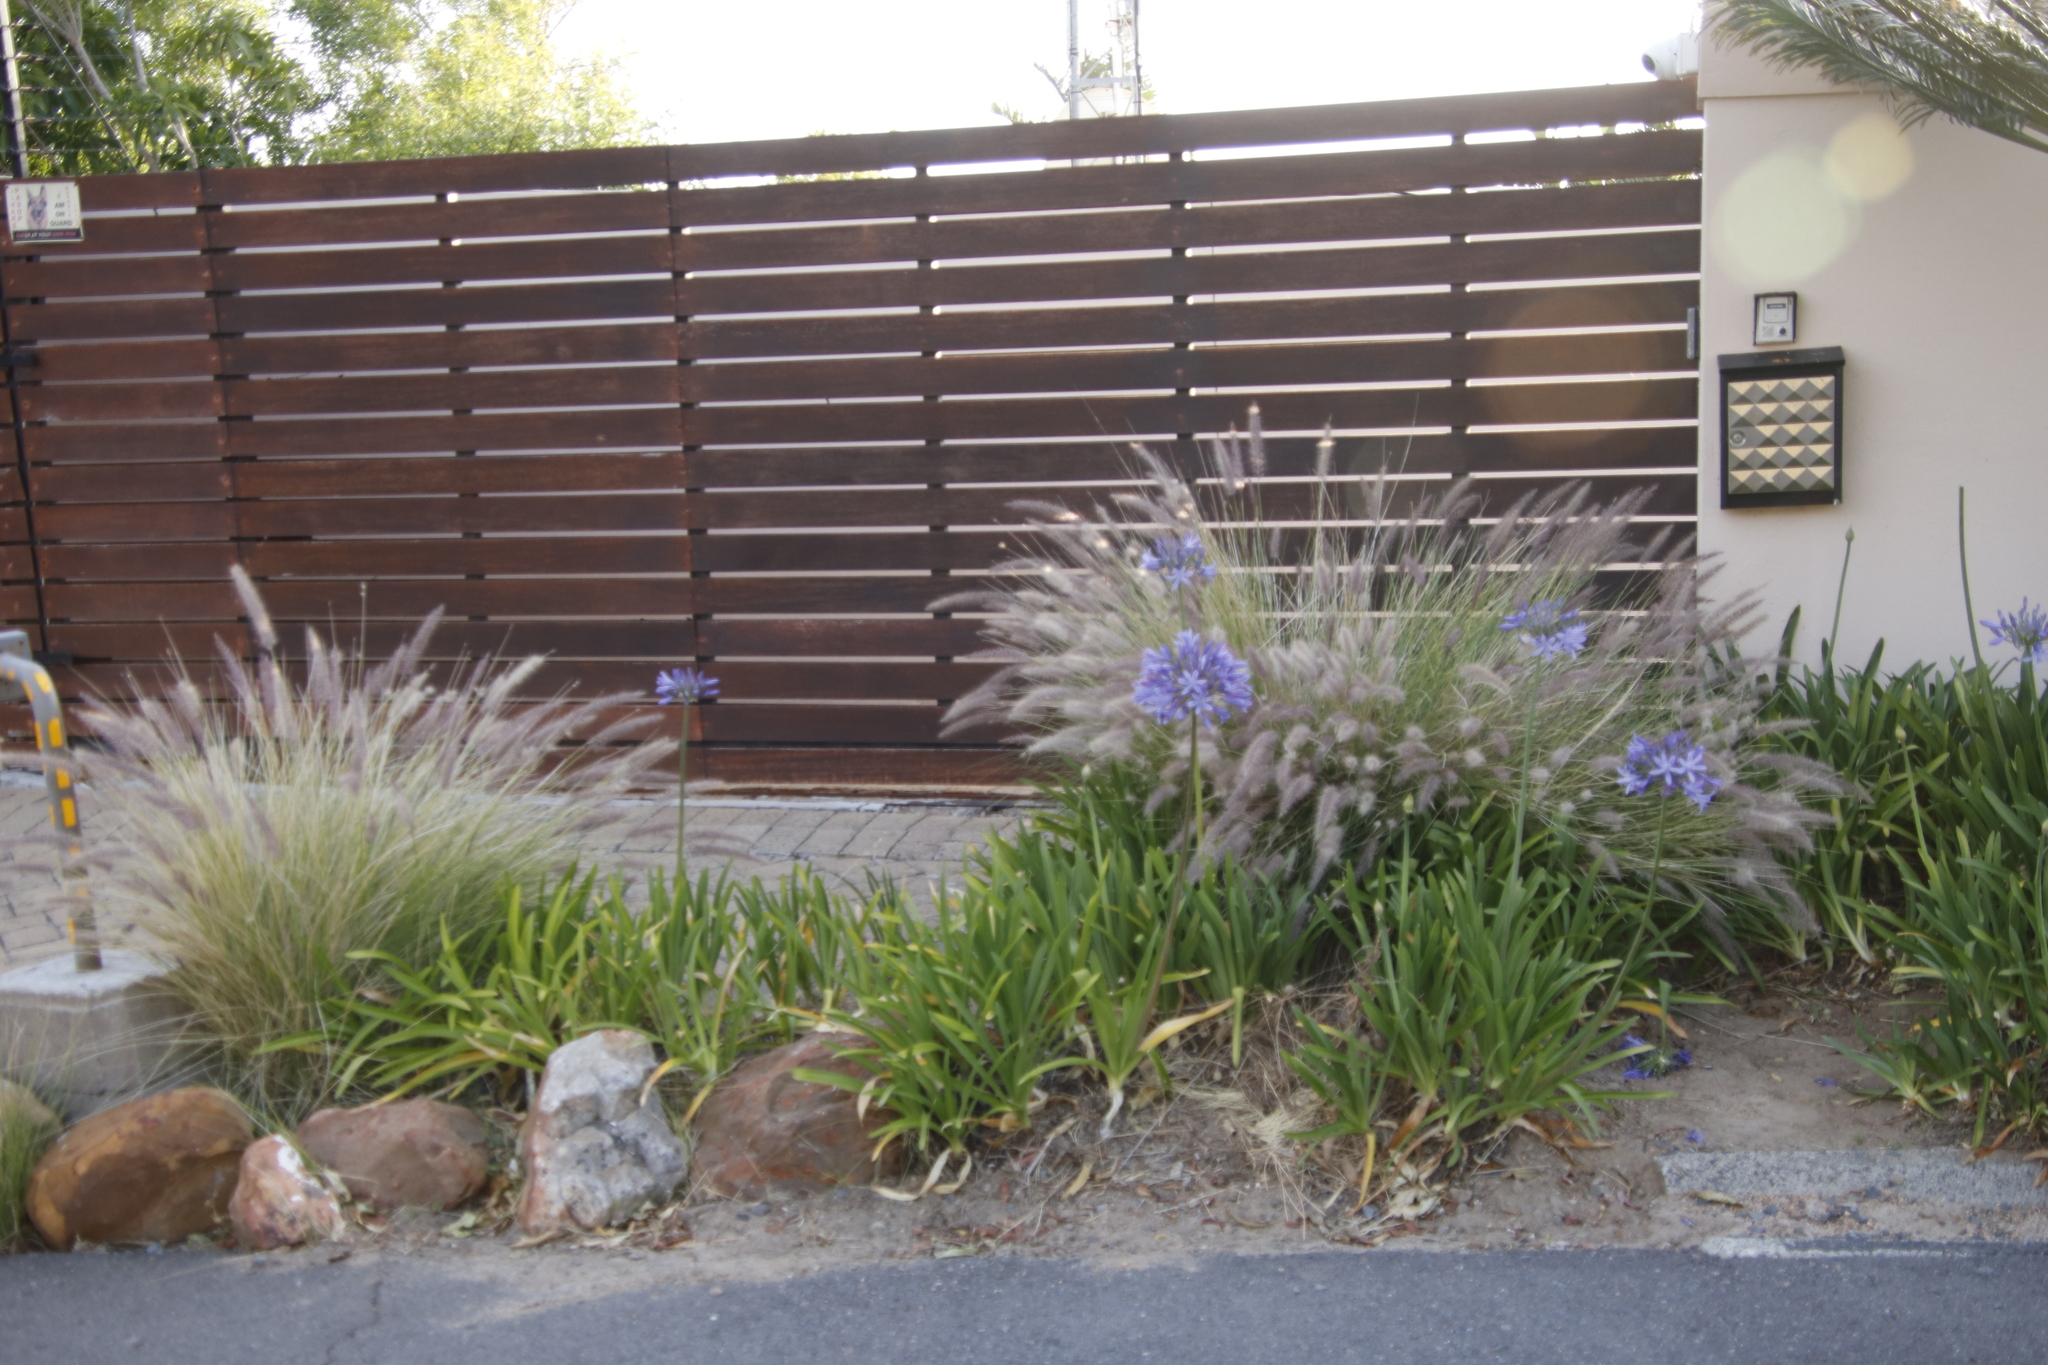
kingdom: Plantae
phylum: Tracheophyta
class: Liliopsida
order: Poales
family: Poaceae
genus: Cenchrus
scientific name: Cenchrus setaceus
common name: Crimson fountaingrass
